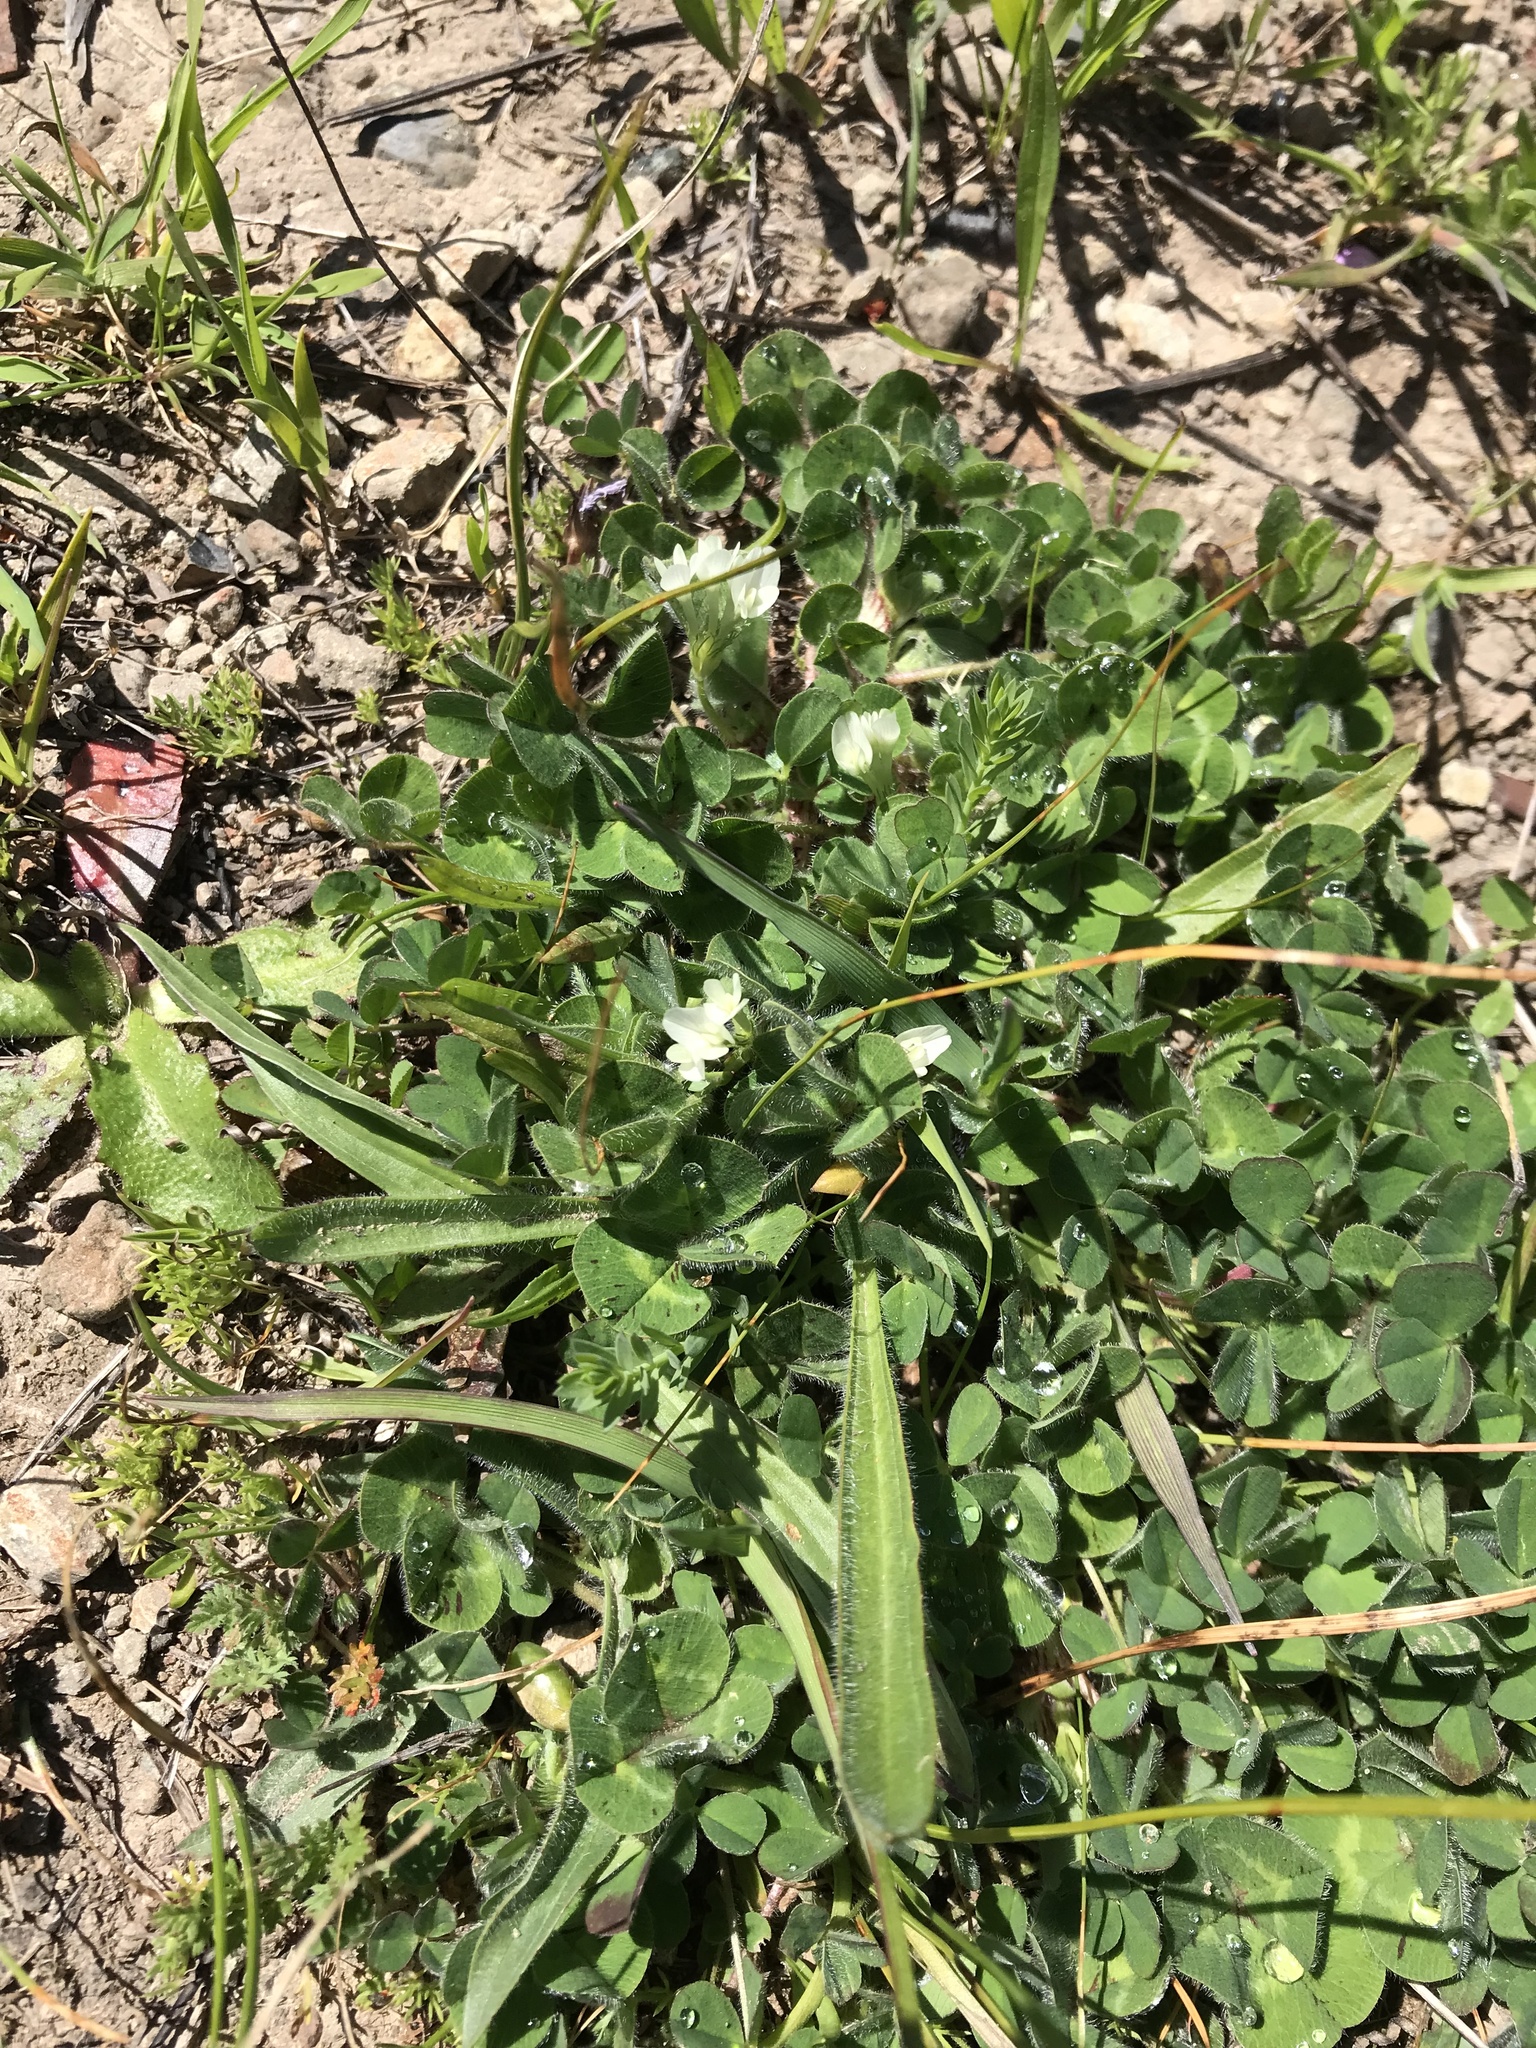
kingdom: Plantae
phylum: Tracheophyta
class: Magnoliopsida
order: Fabales
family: Fabaceae
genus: Trifolium
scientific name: Trifolium subterraneum
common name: Subterranean clover
